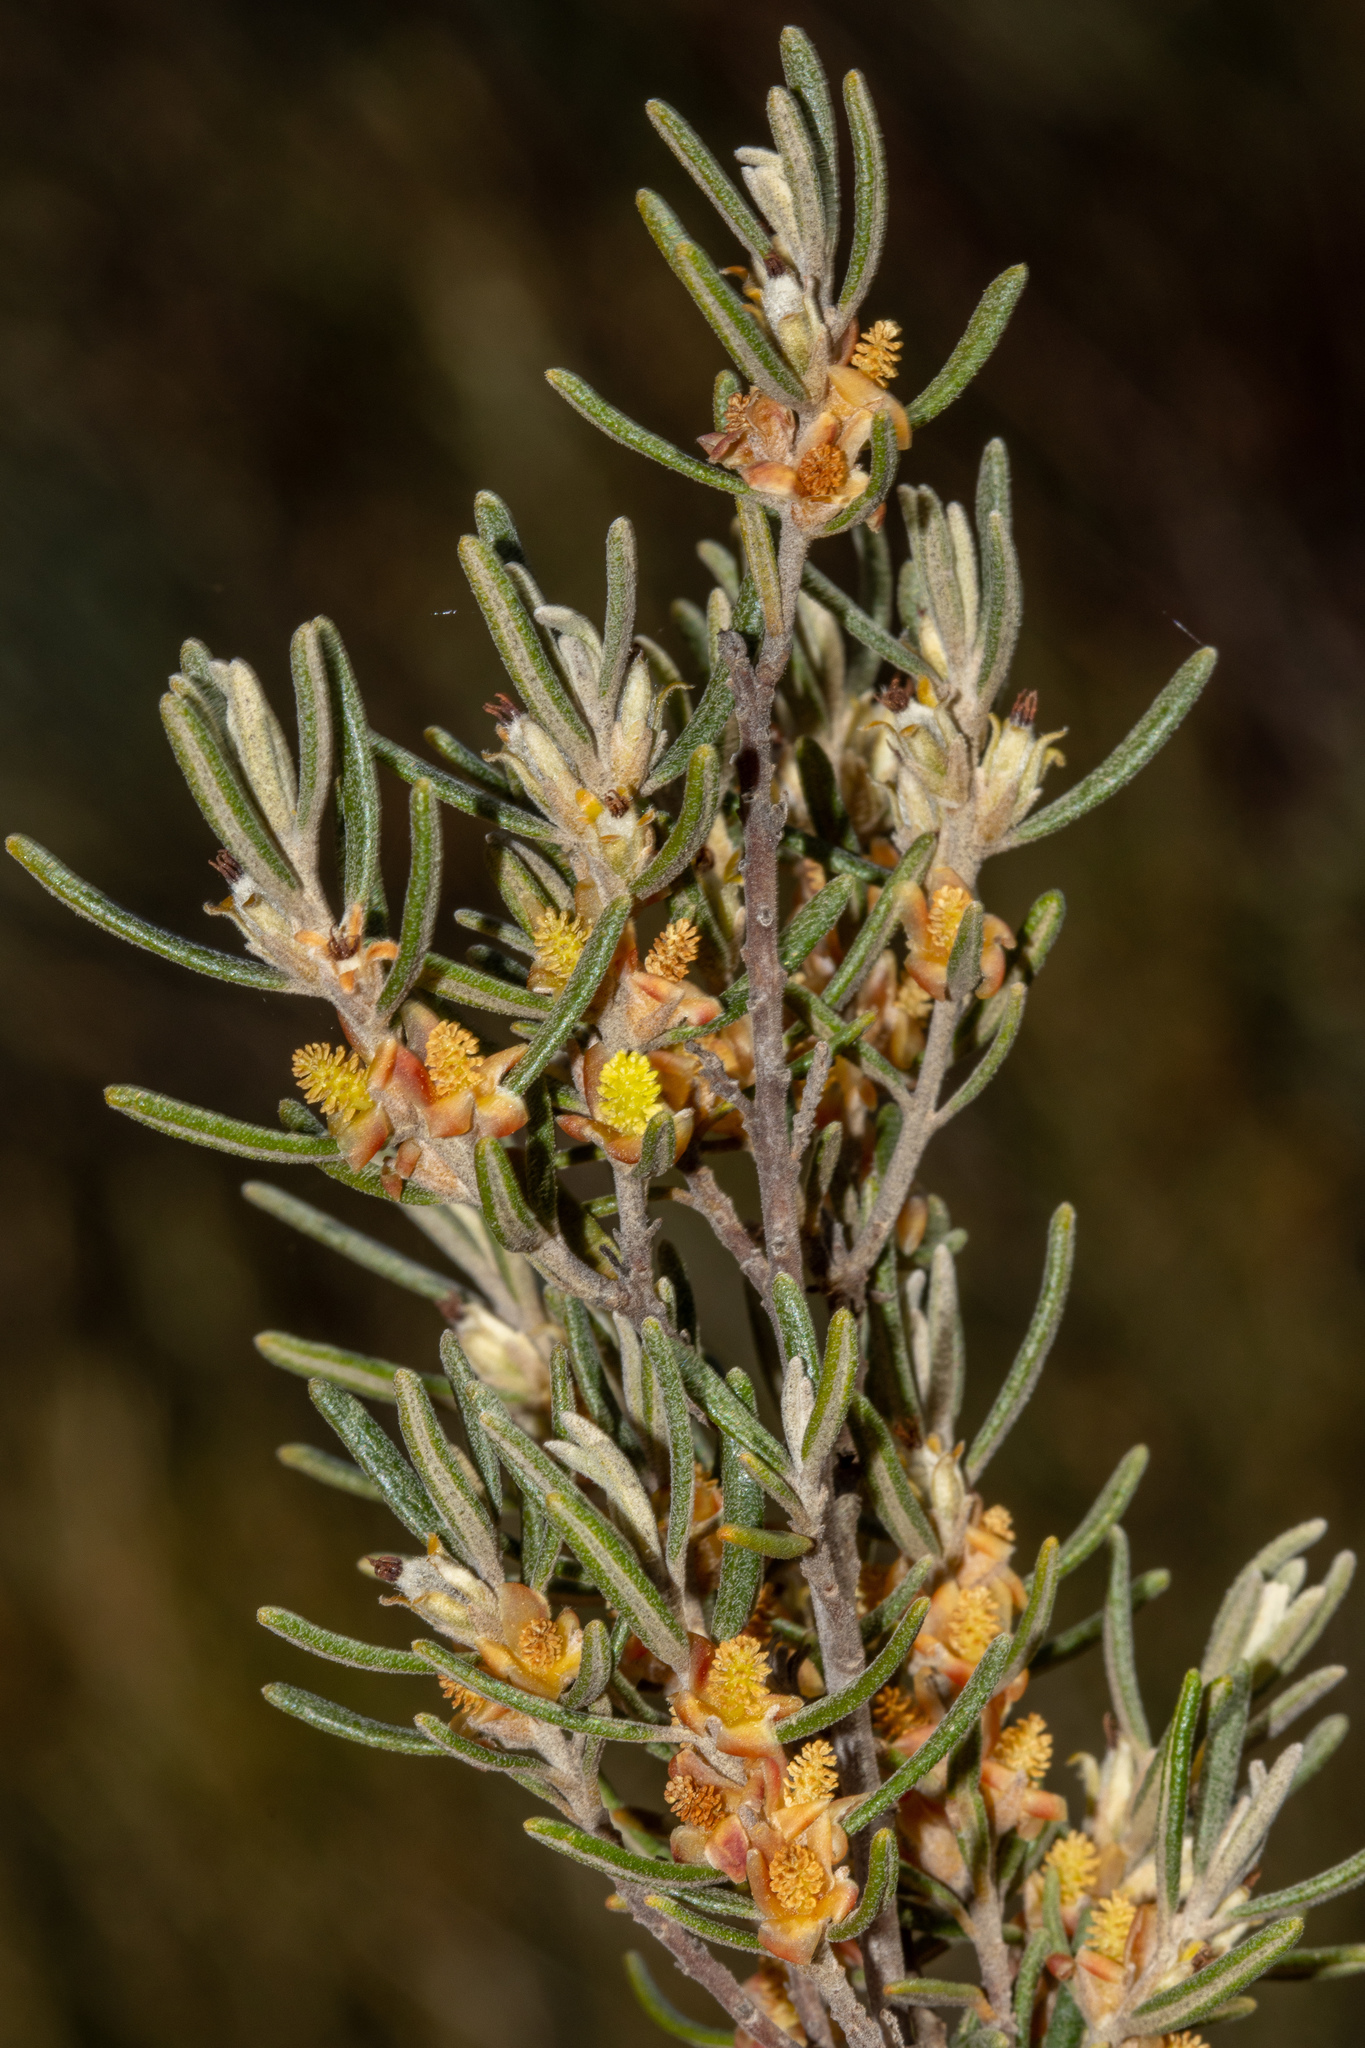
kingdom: Plantae
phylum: Tracheophyta
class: Magnoliopsida
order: Malpighiales
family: Euphorbiaceae
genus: Beyeria
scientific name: Beyeria lechenaultii
